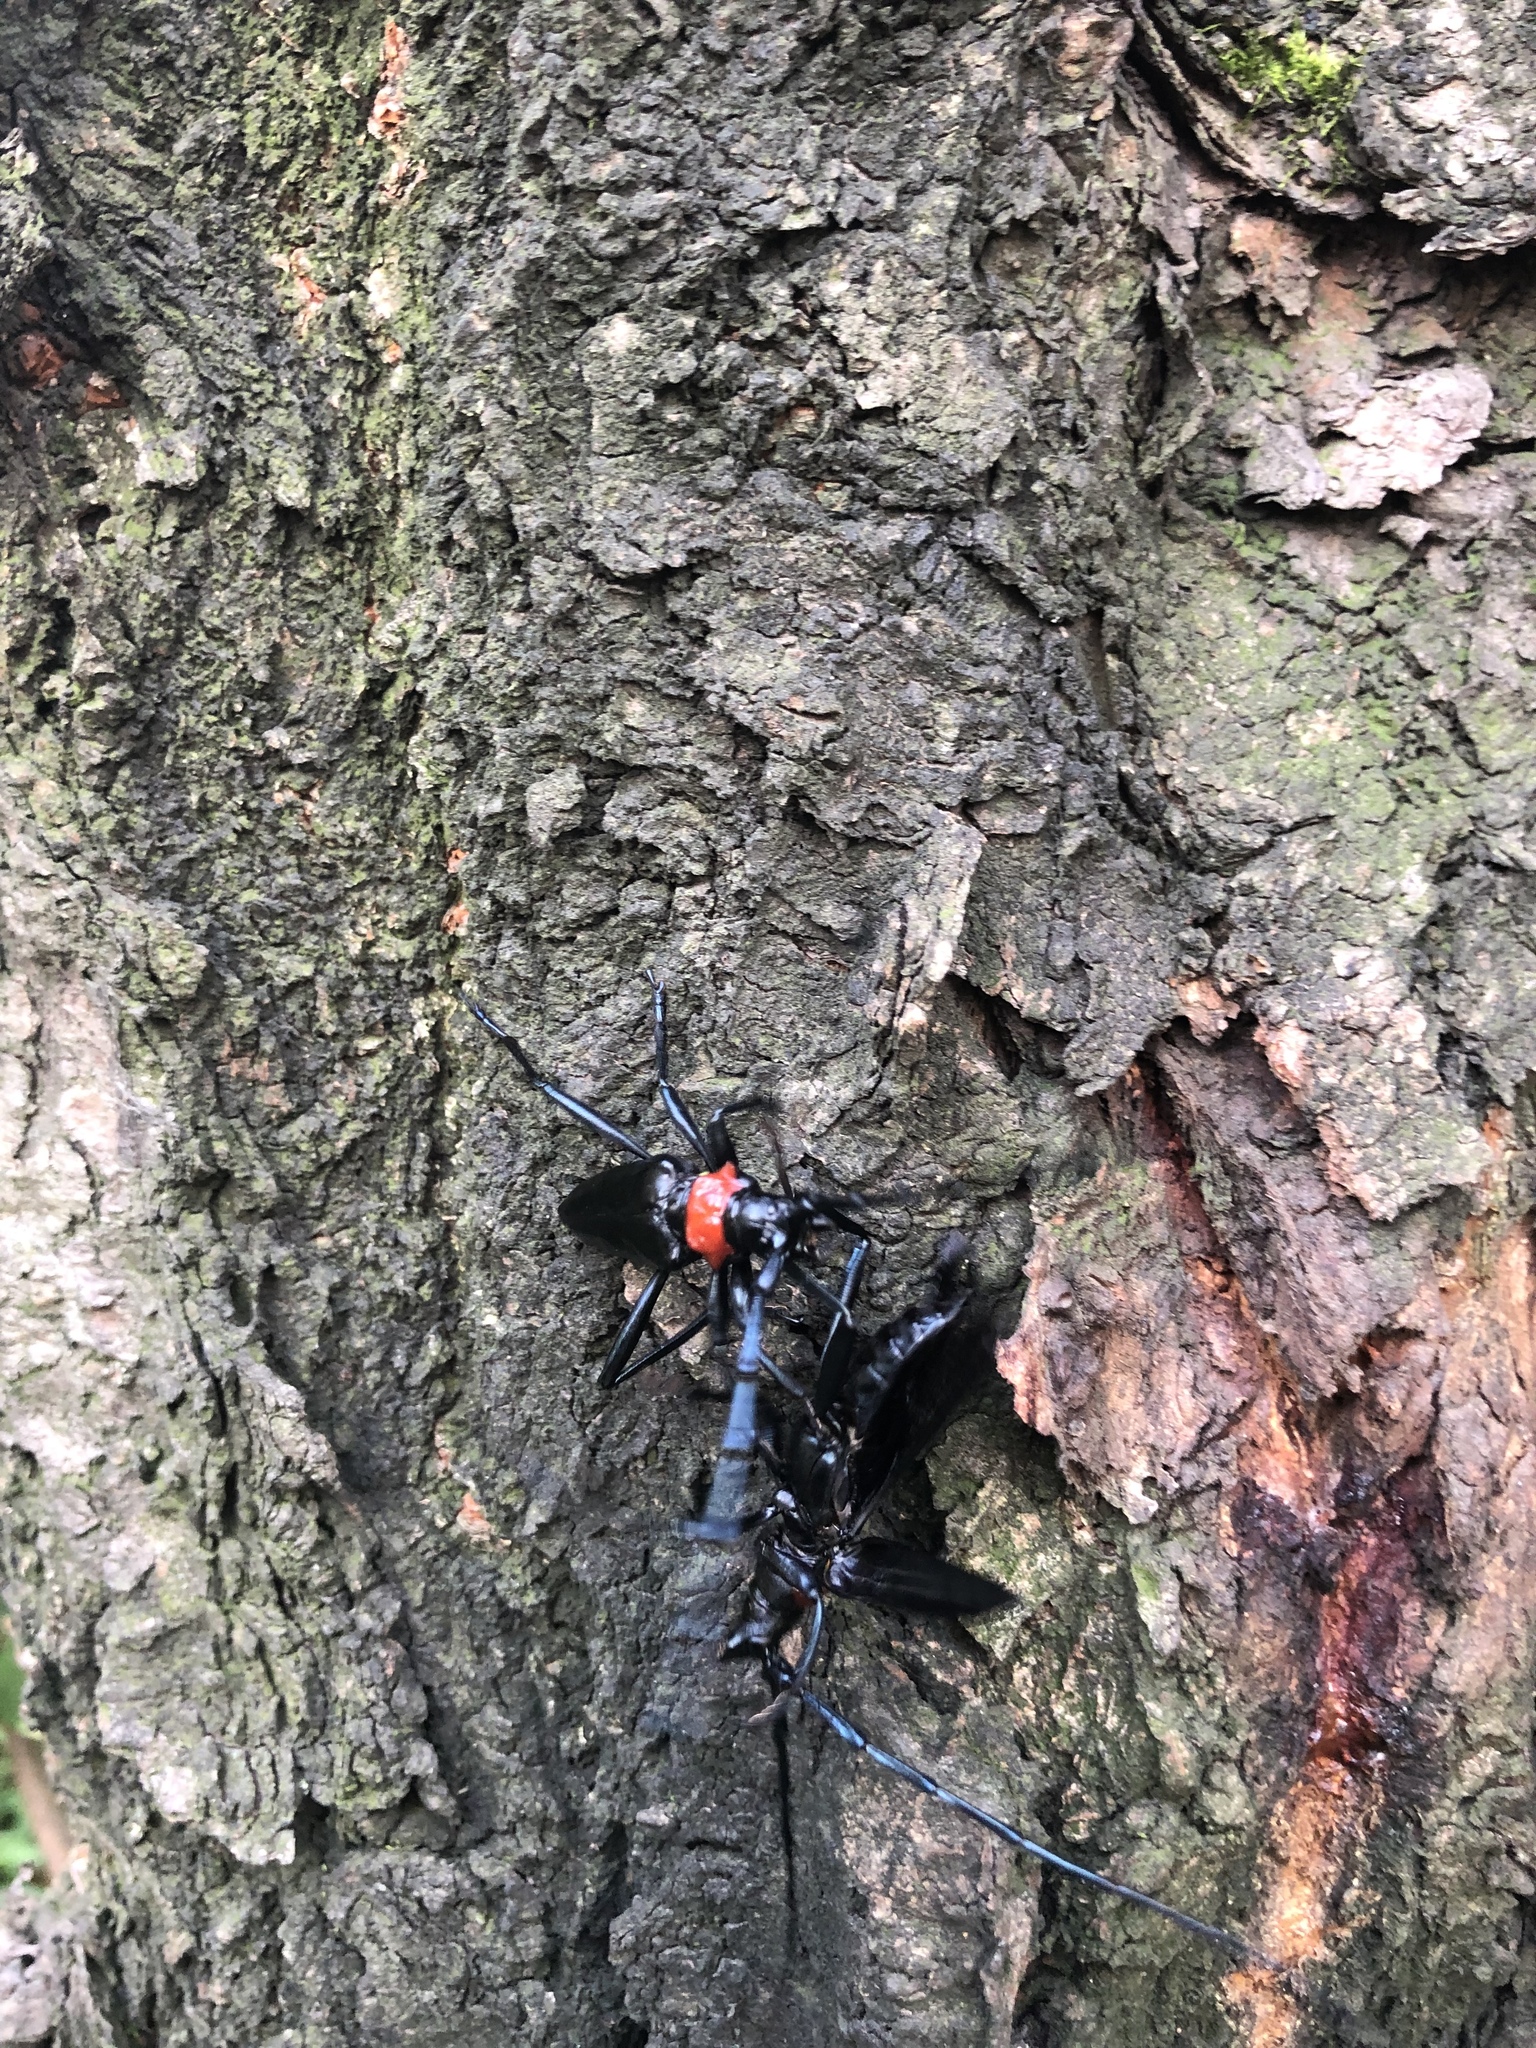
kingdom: Animalia
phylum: Arthropoda
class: Insecta
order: Coleoptera
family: Cerambycidae
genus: Aromia
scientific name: Aromia bungii
